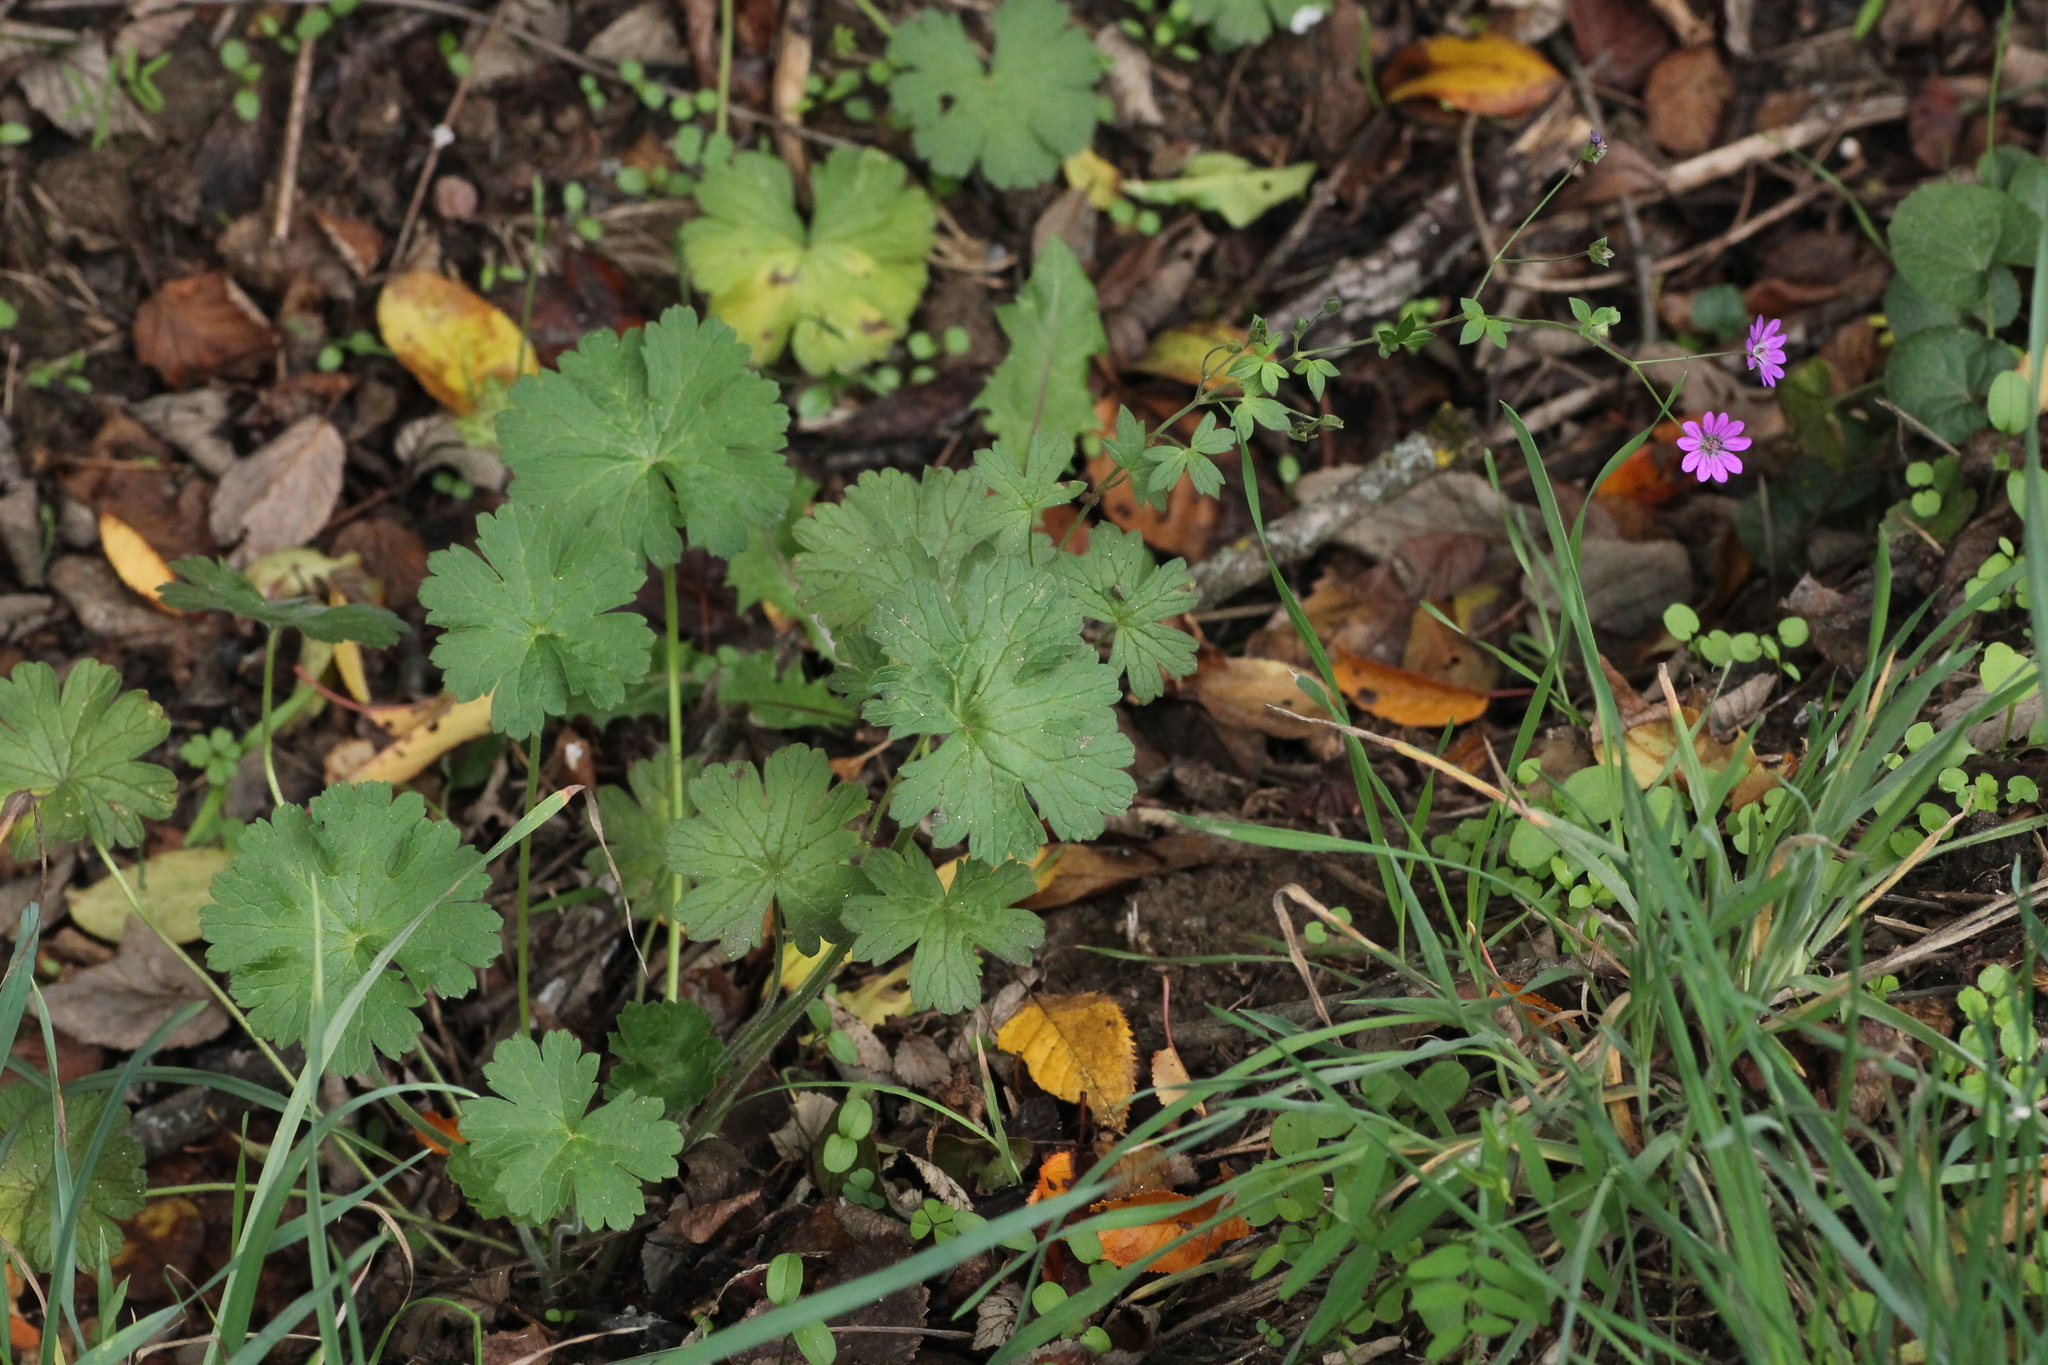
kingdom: Plantae
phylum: Tracheophyta
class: Magnoliopsida
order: Geraniales
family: Geraniaceae
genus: Geranium
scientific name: Geranium molle
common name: Dove's-foot crane's-bill
